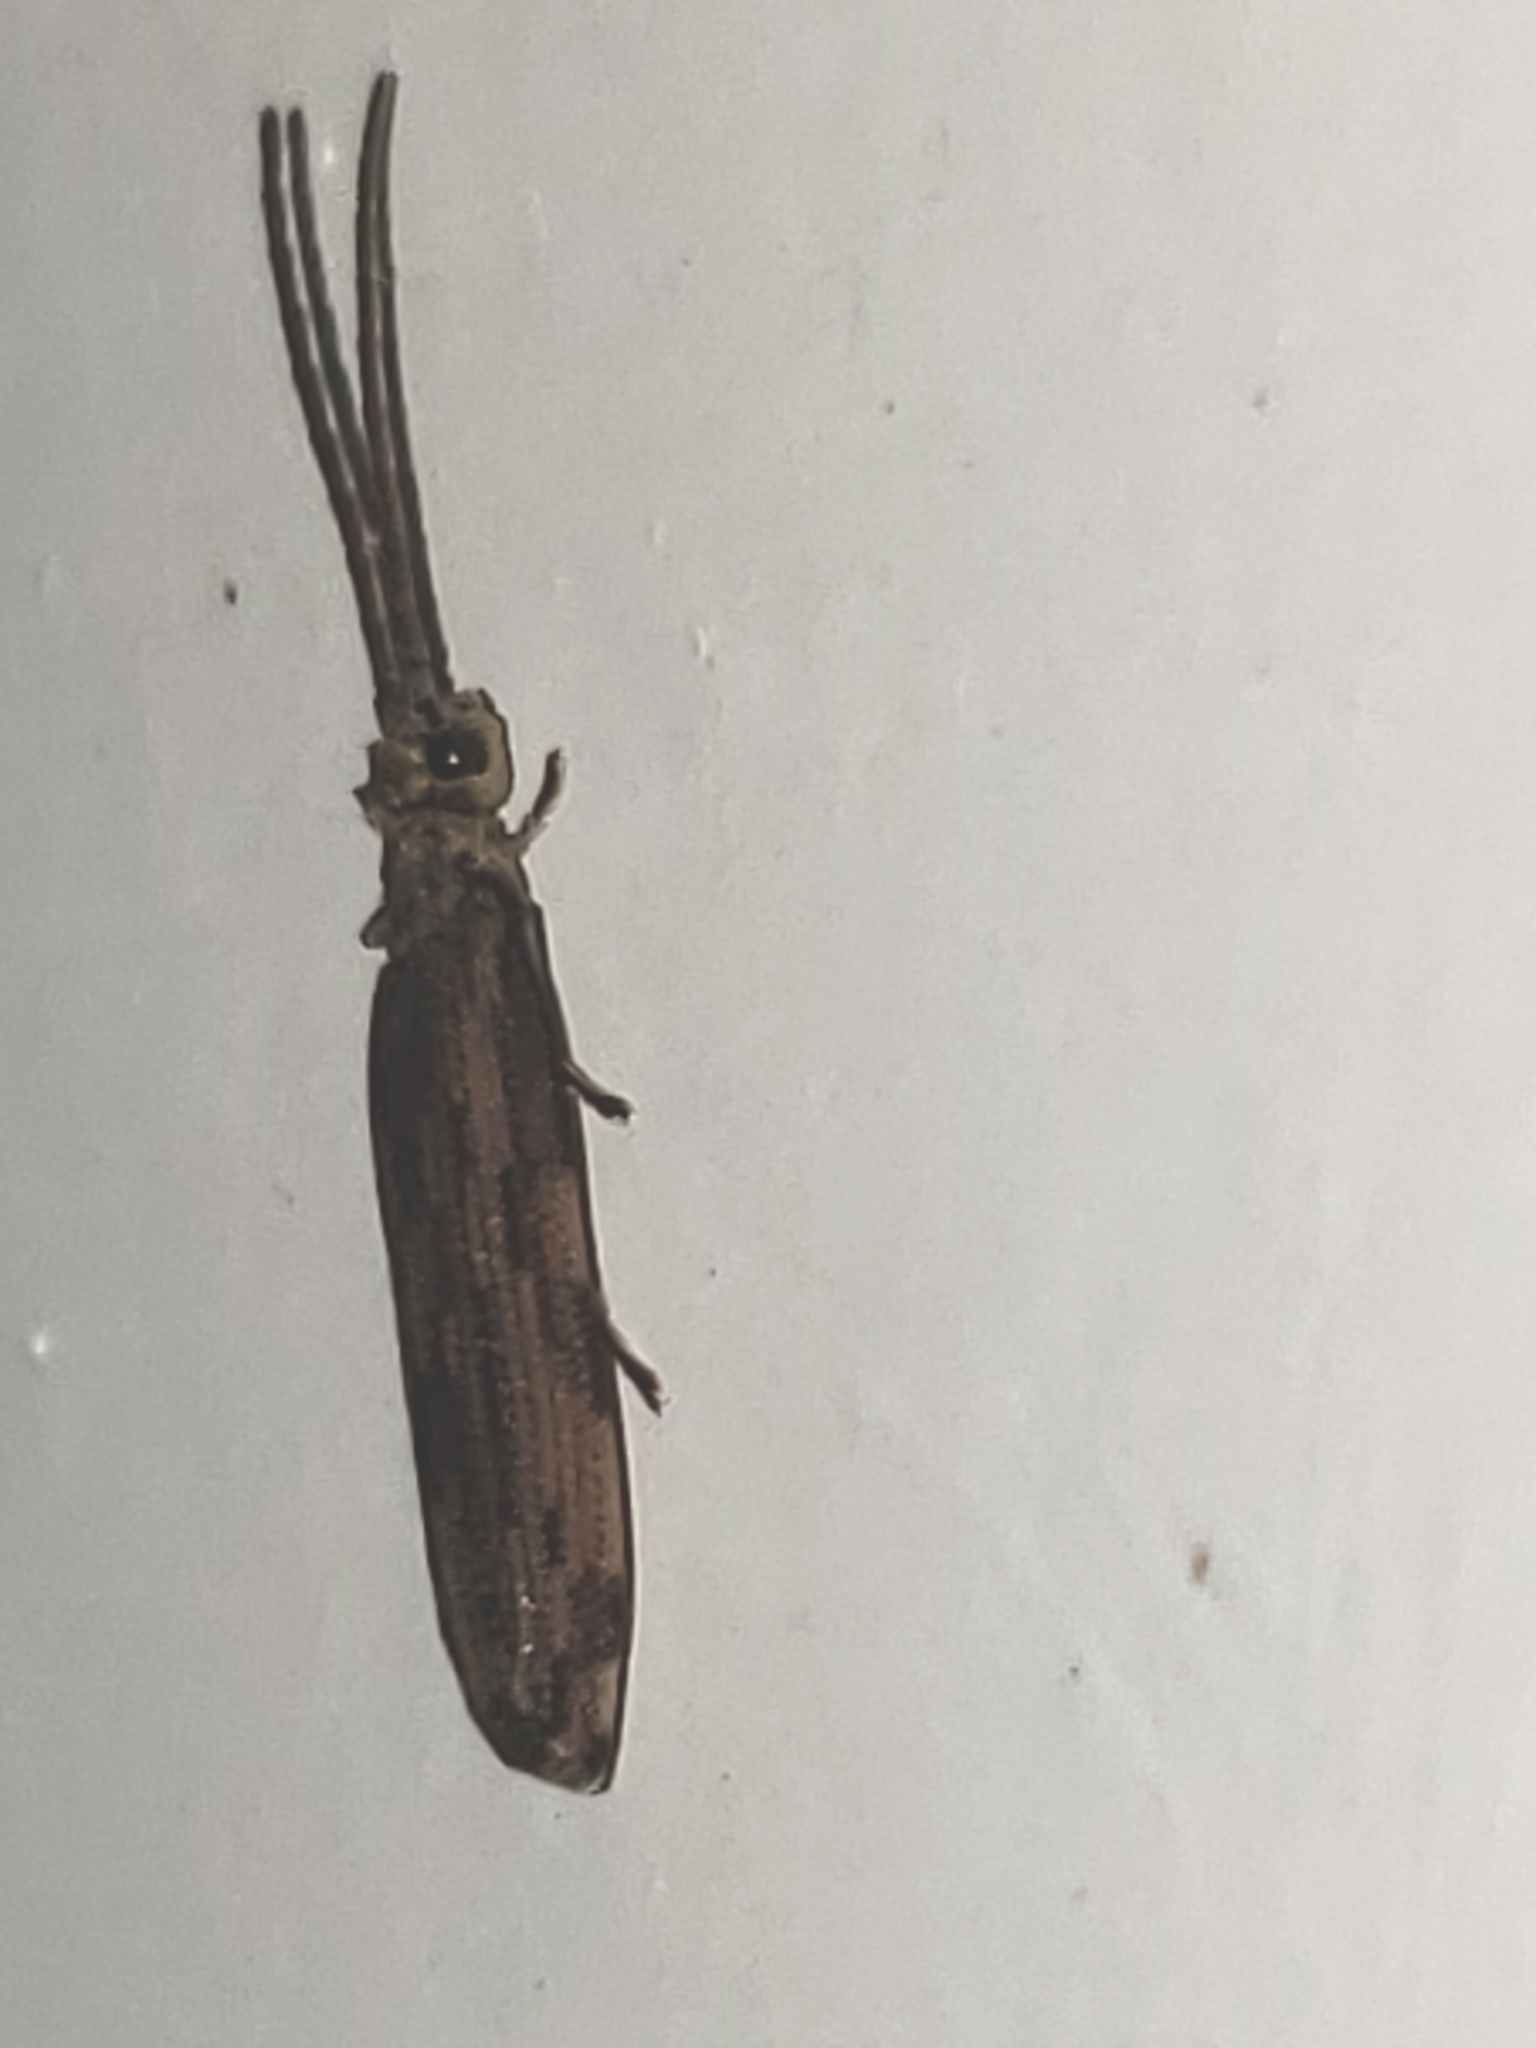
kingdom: Animalia
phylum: Arthropoda
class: Insecta
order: Coleoptera
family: Cupedidae
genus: Tenomerga
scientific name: Tenomerga cinerea
